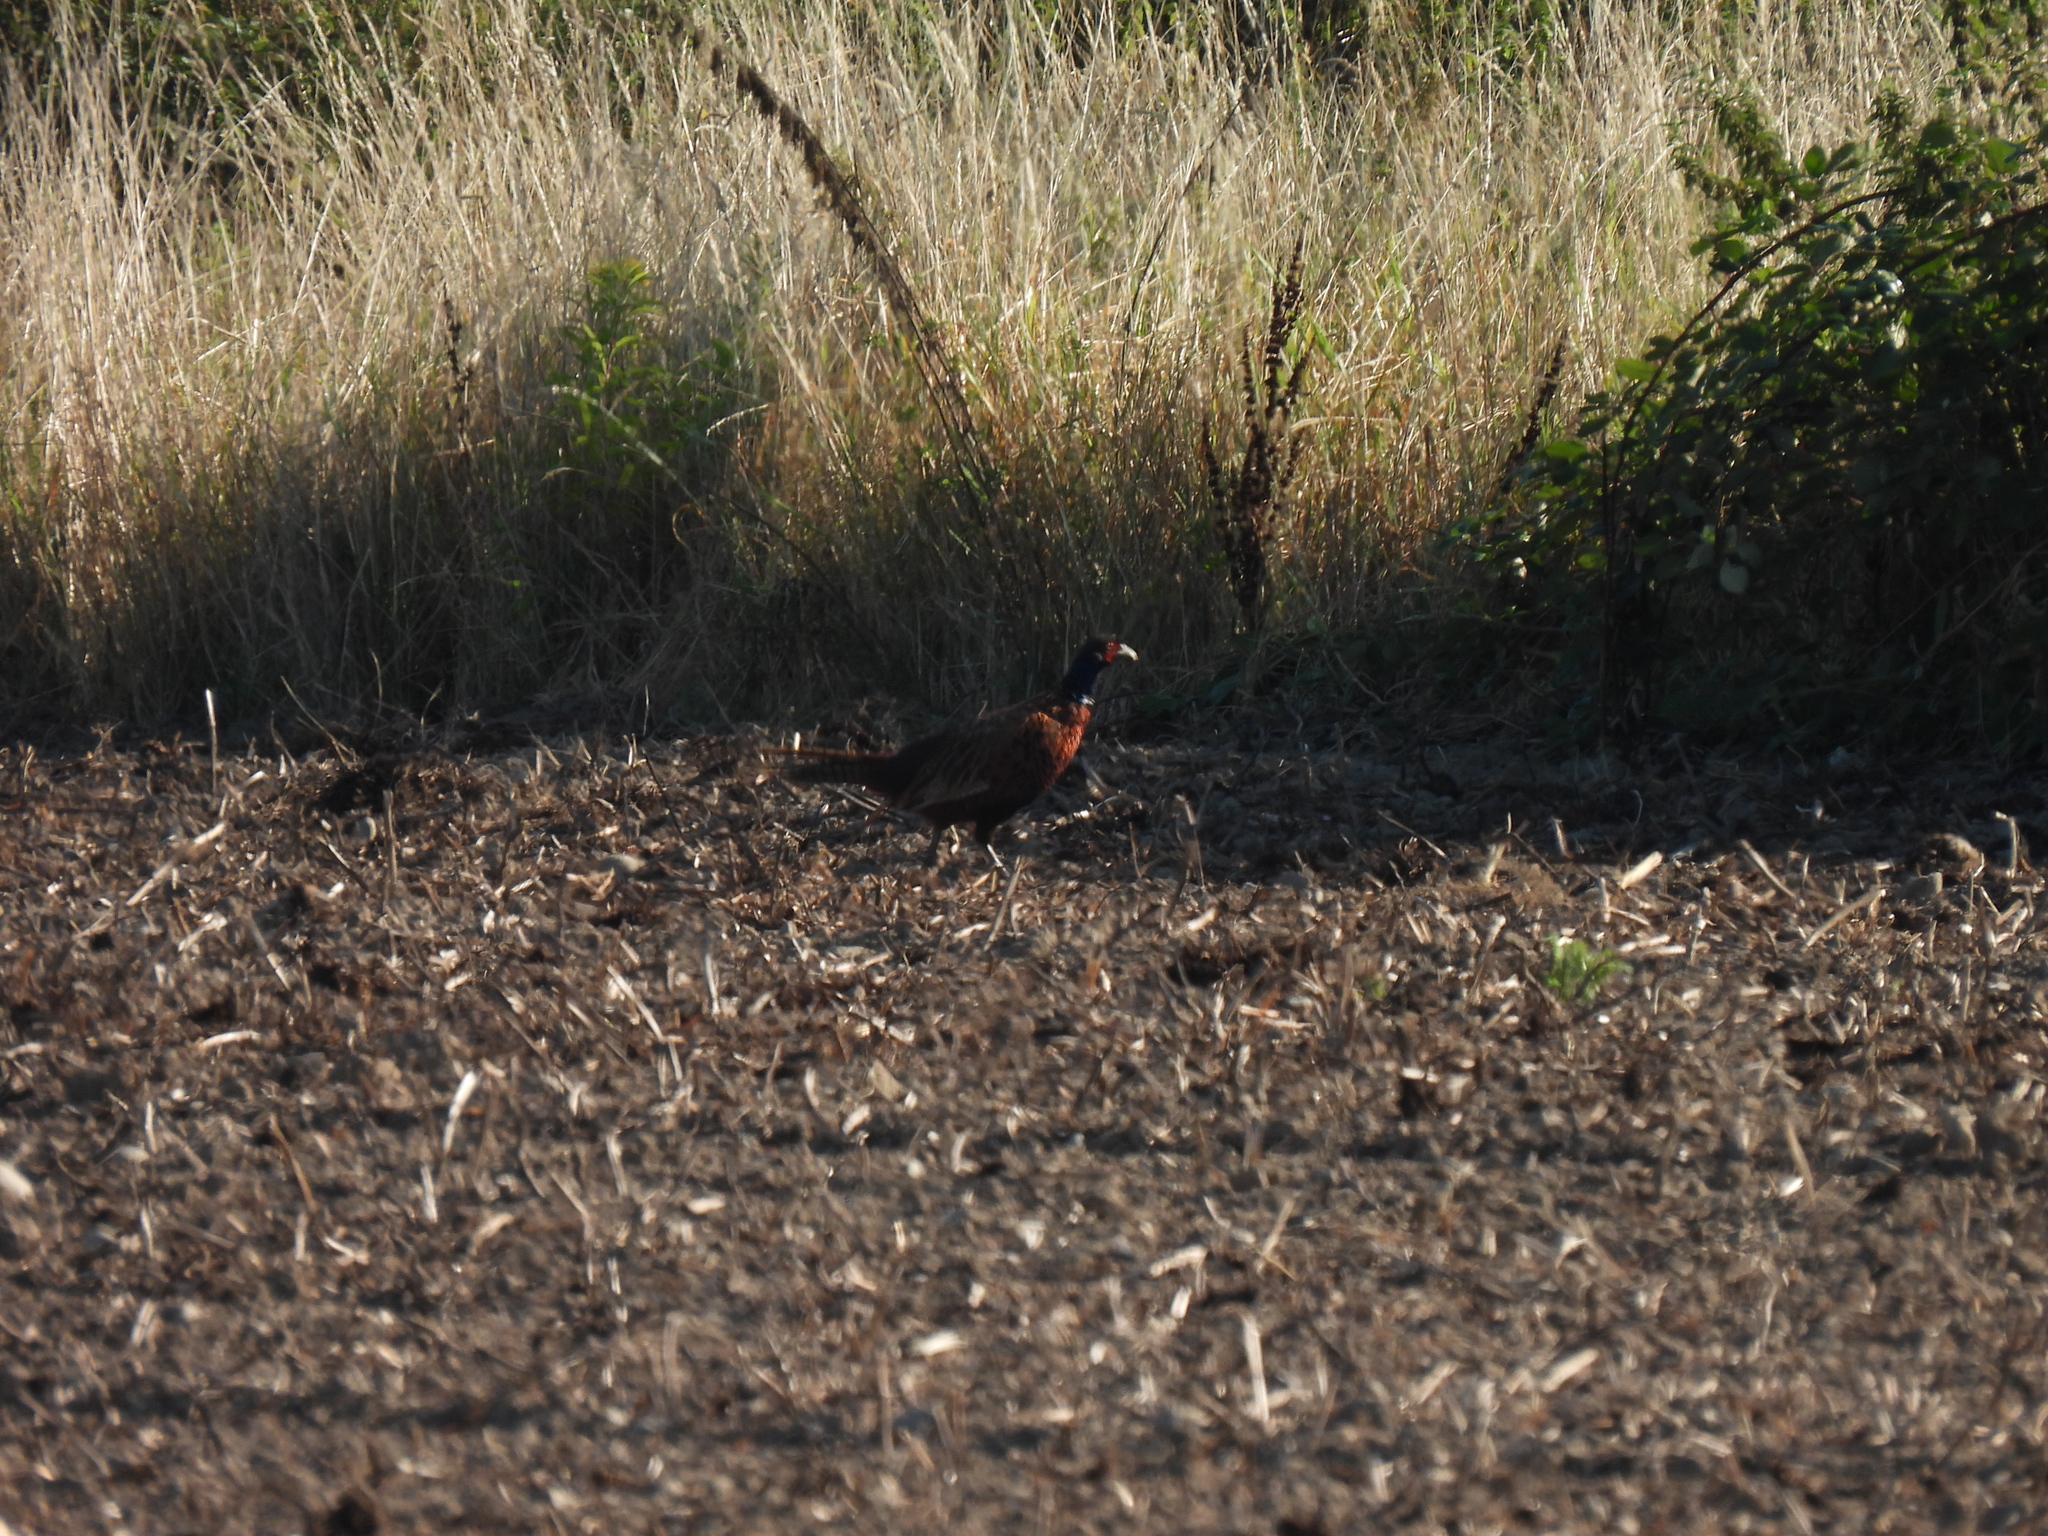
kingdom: Animalia
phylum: Chordata
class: Aves
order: Galliformes
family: Phasianidae
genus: Phasianus
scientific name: Phasianus colchicus
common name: Common pheasant
